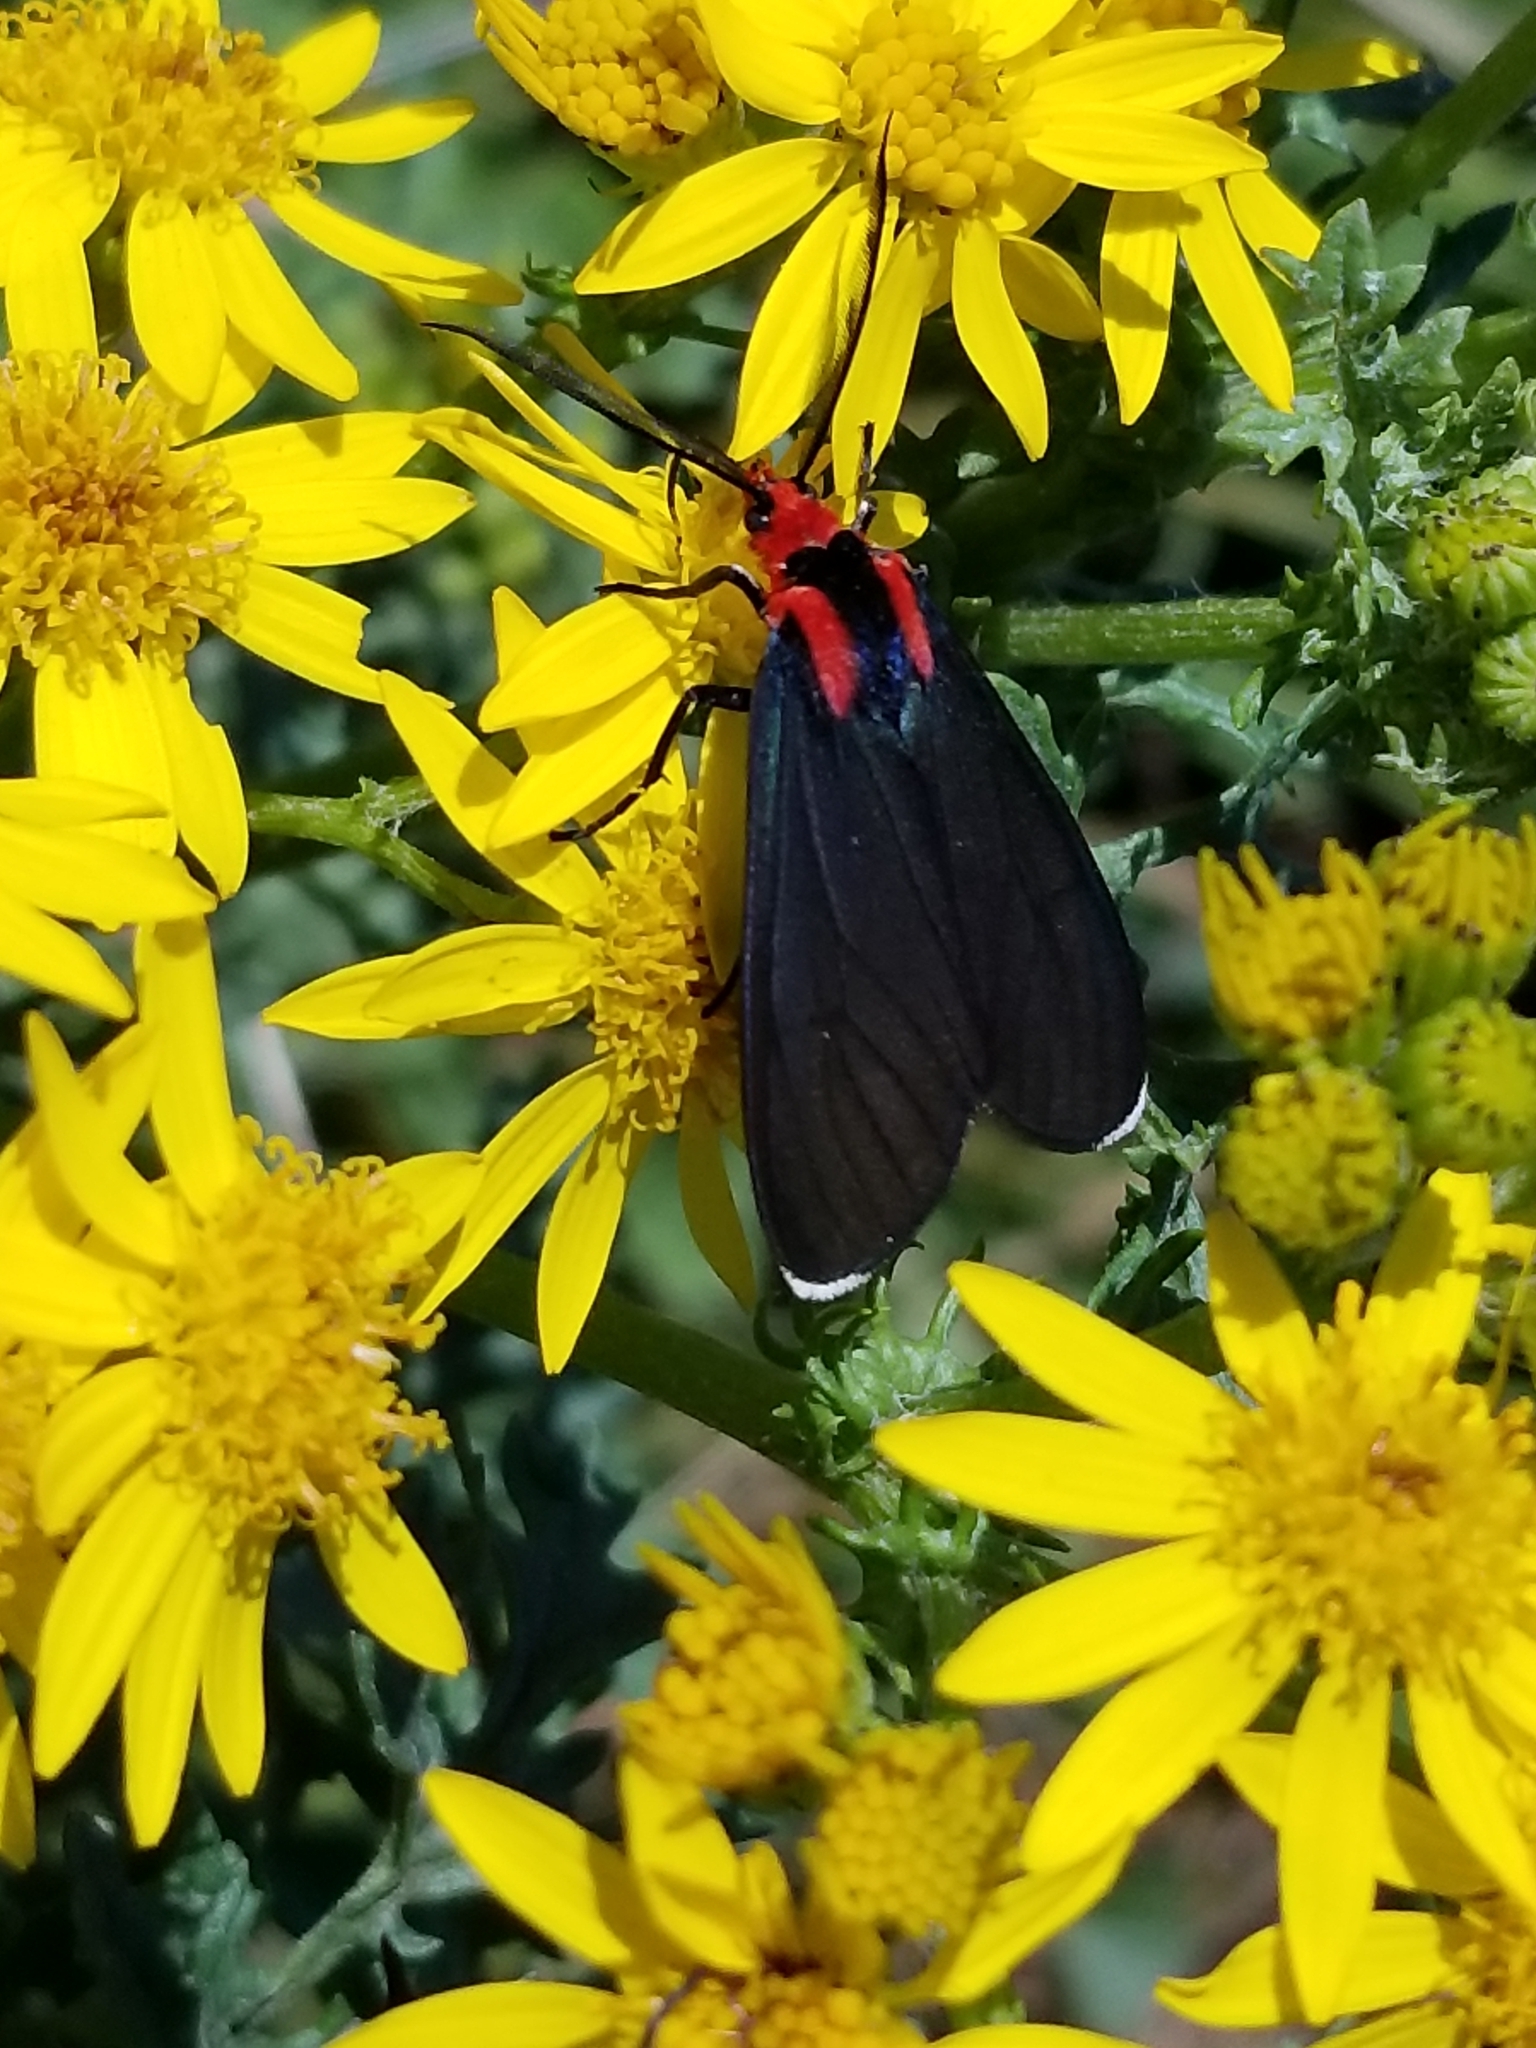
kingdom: Animalia
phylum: Arthropoda
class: Insecta
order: Lepidoptera
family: Erebidae
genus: Ctenucha
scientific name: Ctenucha rubroscapus
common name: Red-shouldered ctenucha
